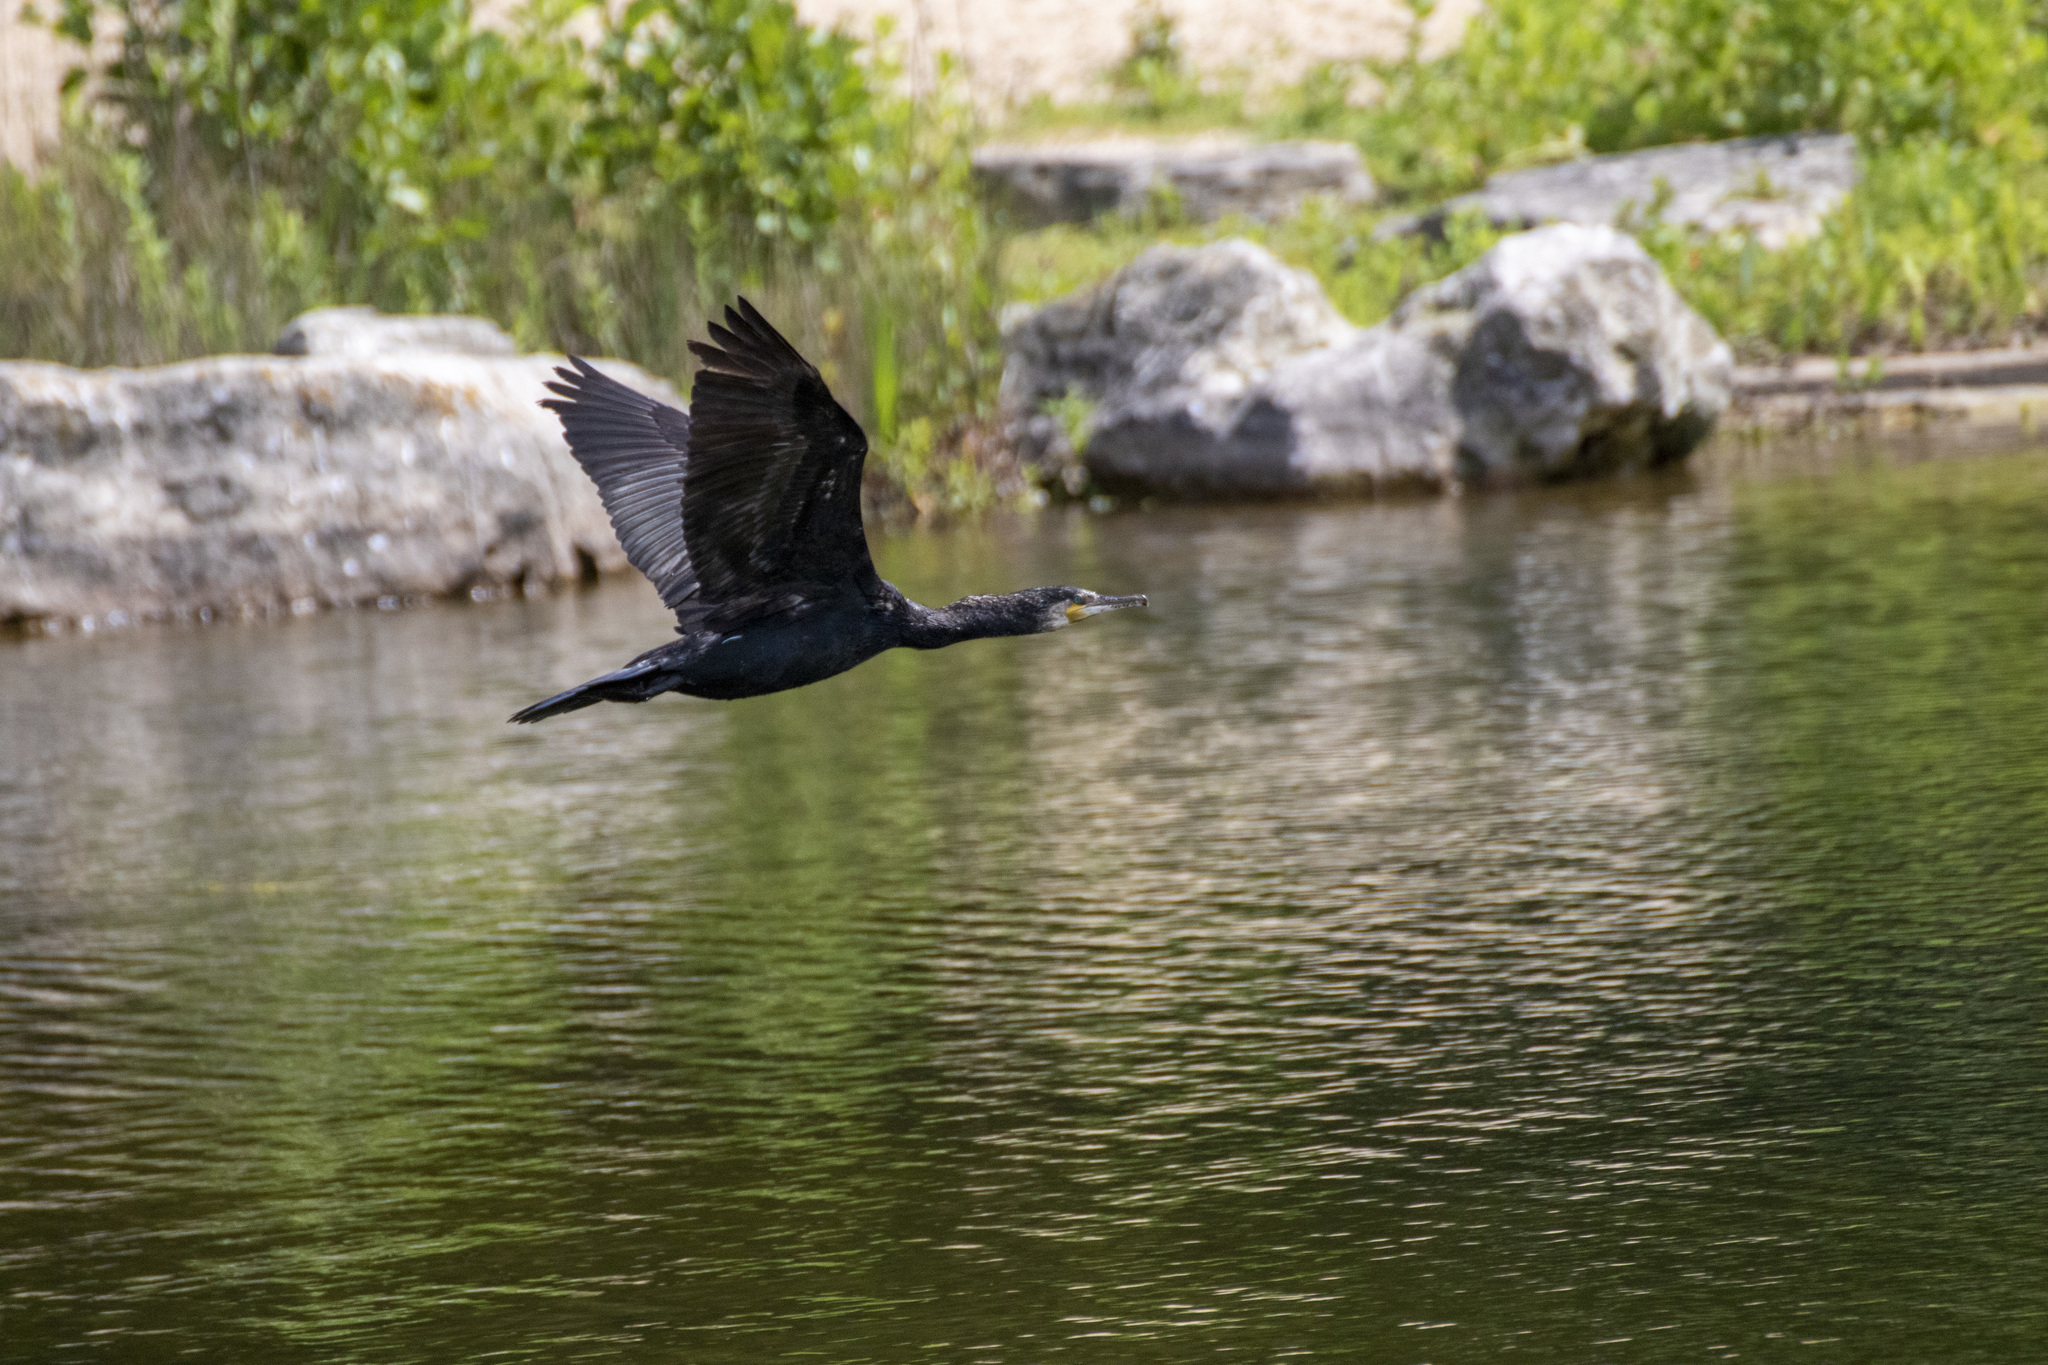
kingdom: Animalia
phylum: Chordata
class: Aves
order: Suliformes
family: Phalacrocoracidae
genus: Phalacrocorax
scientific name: Phalacrocorax carbo
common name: Great cormorant
